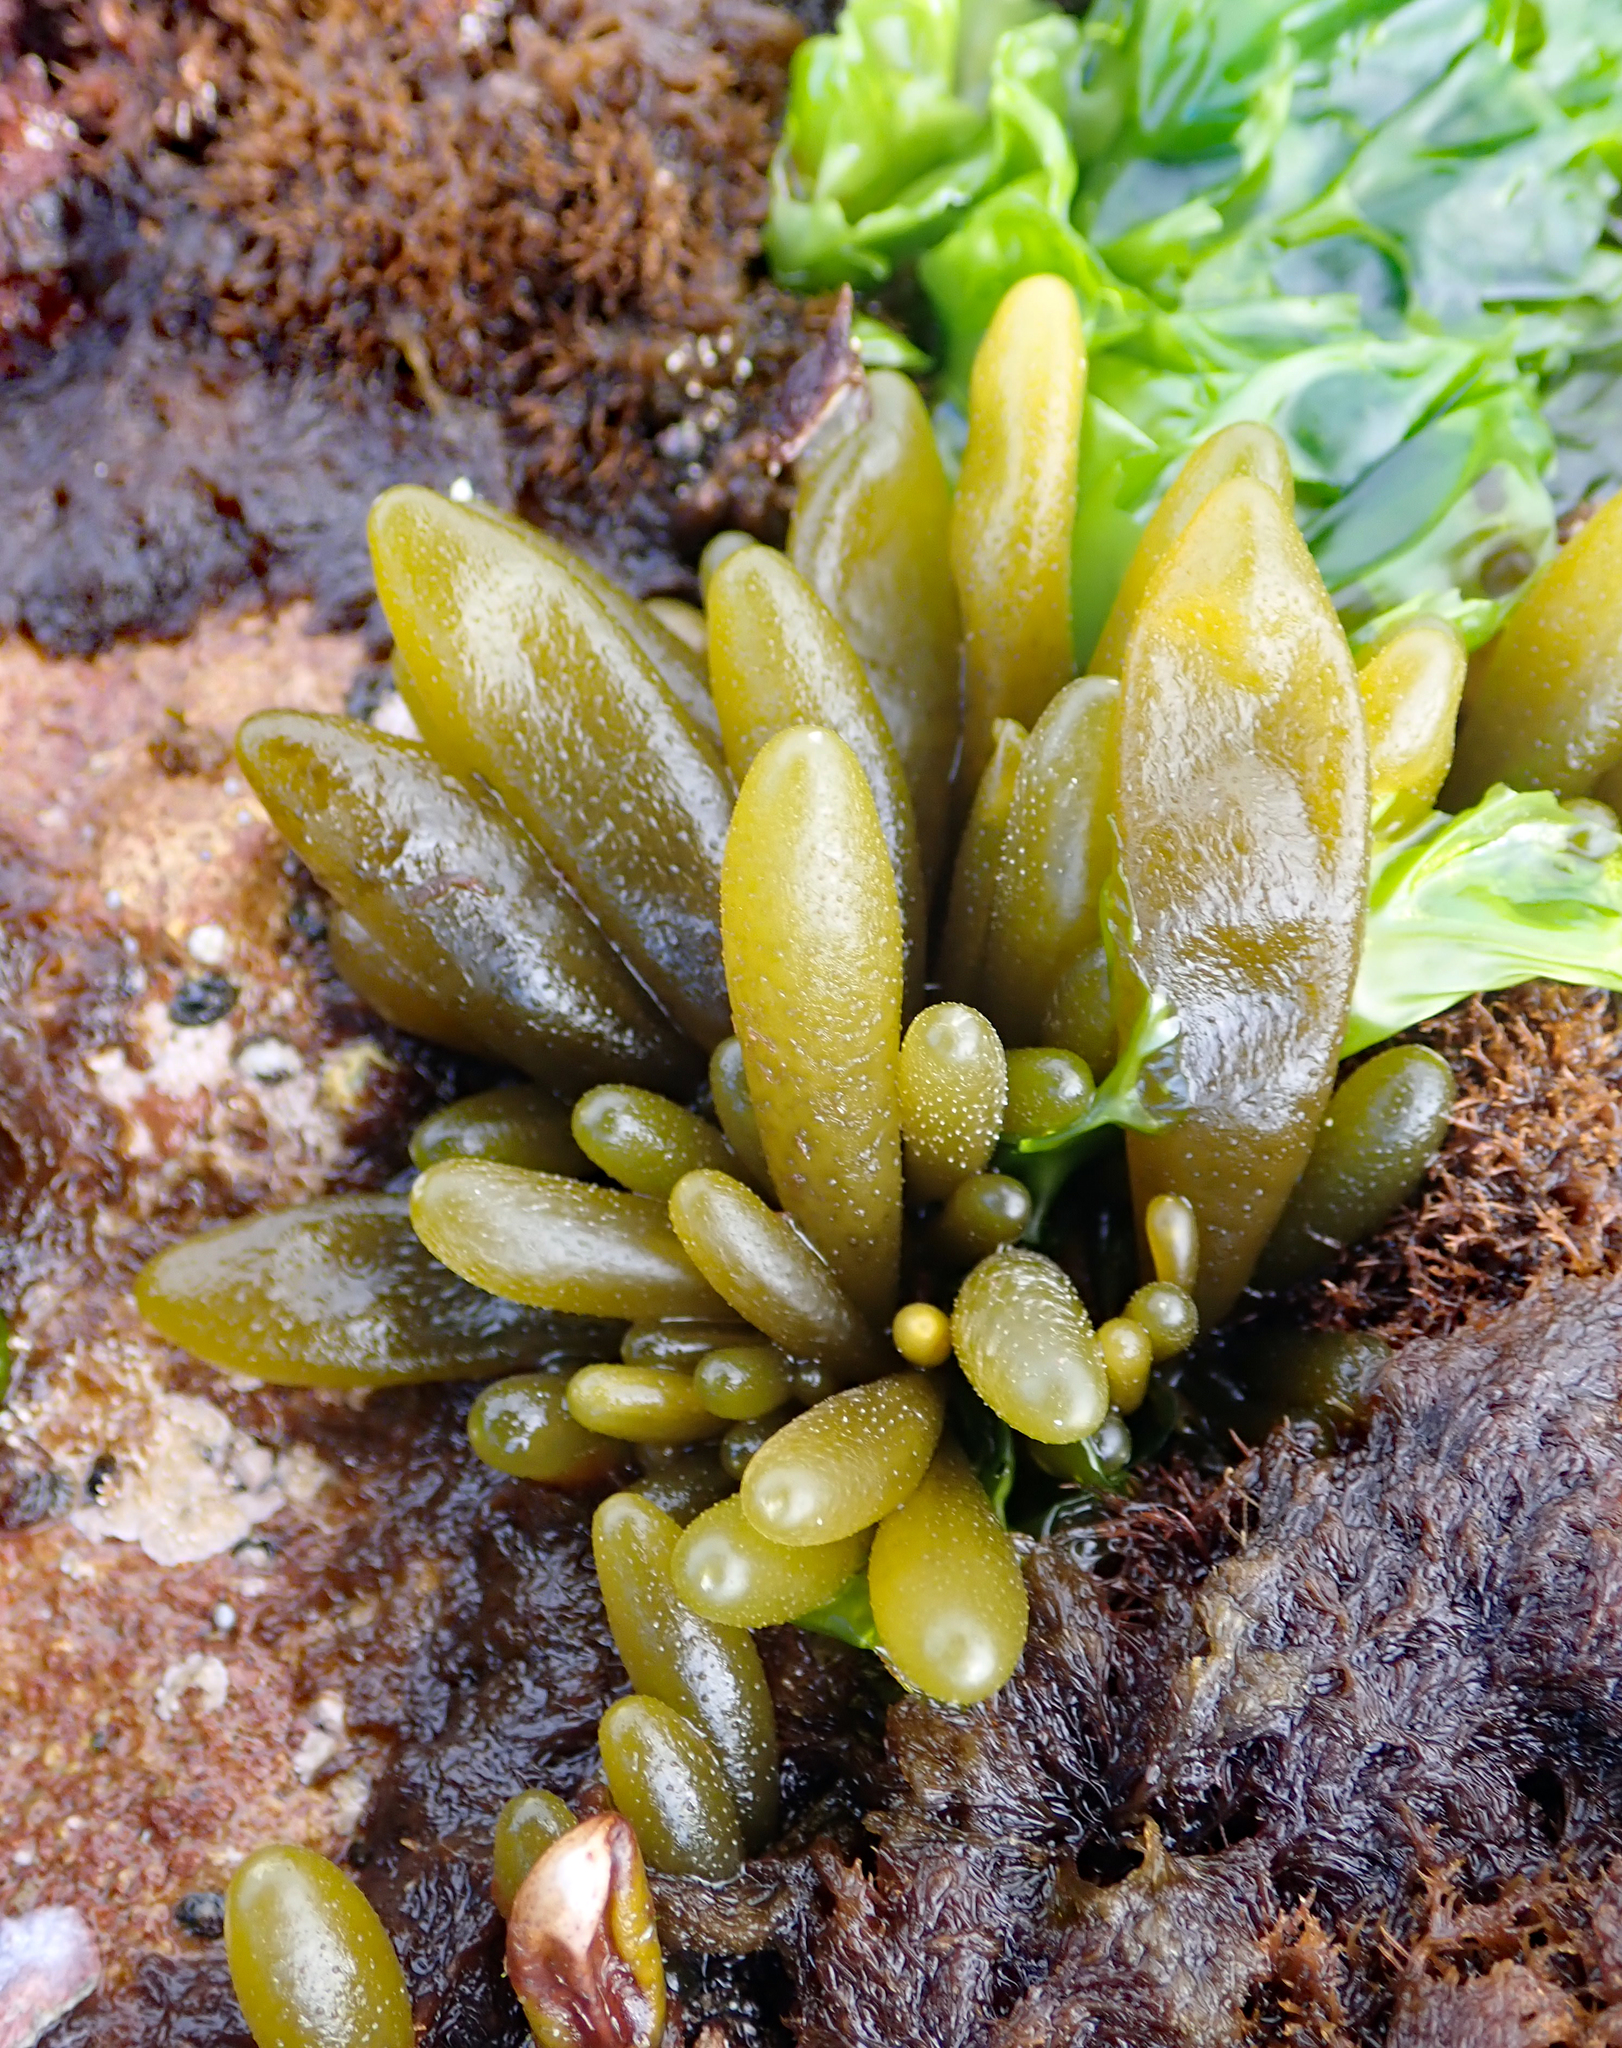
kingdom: Chromista
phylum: Ochrophyta
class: Phaeophyceae
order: Ectocarpales
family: Adenocystaceae
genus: Adenocystis
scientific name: Adenocystis utricularis
